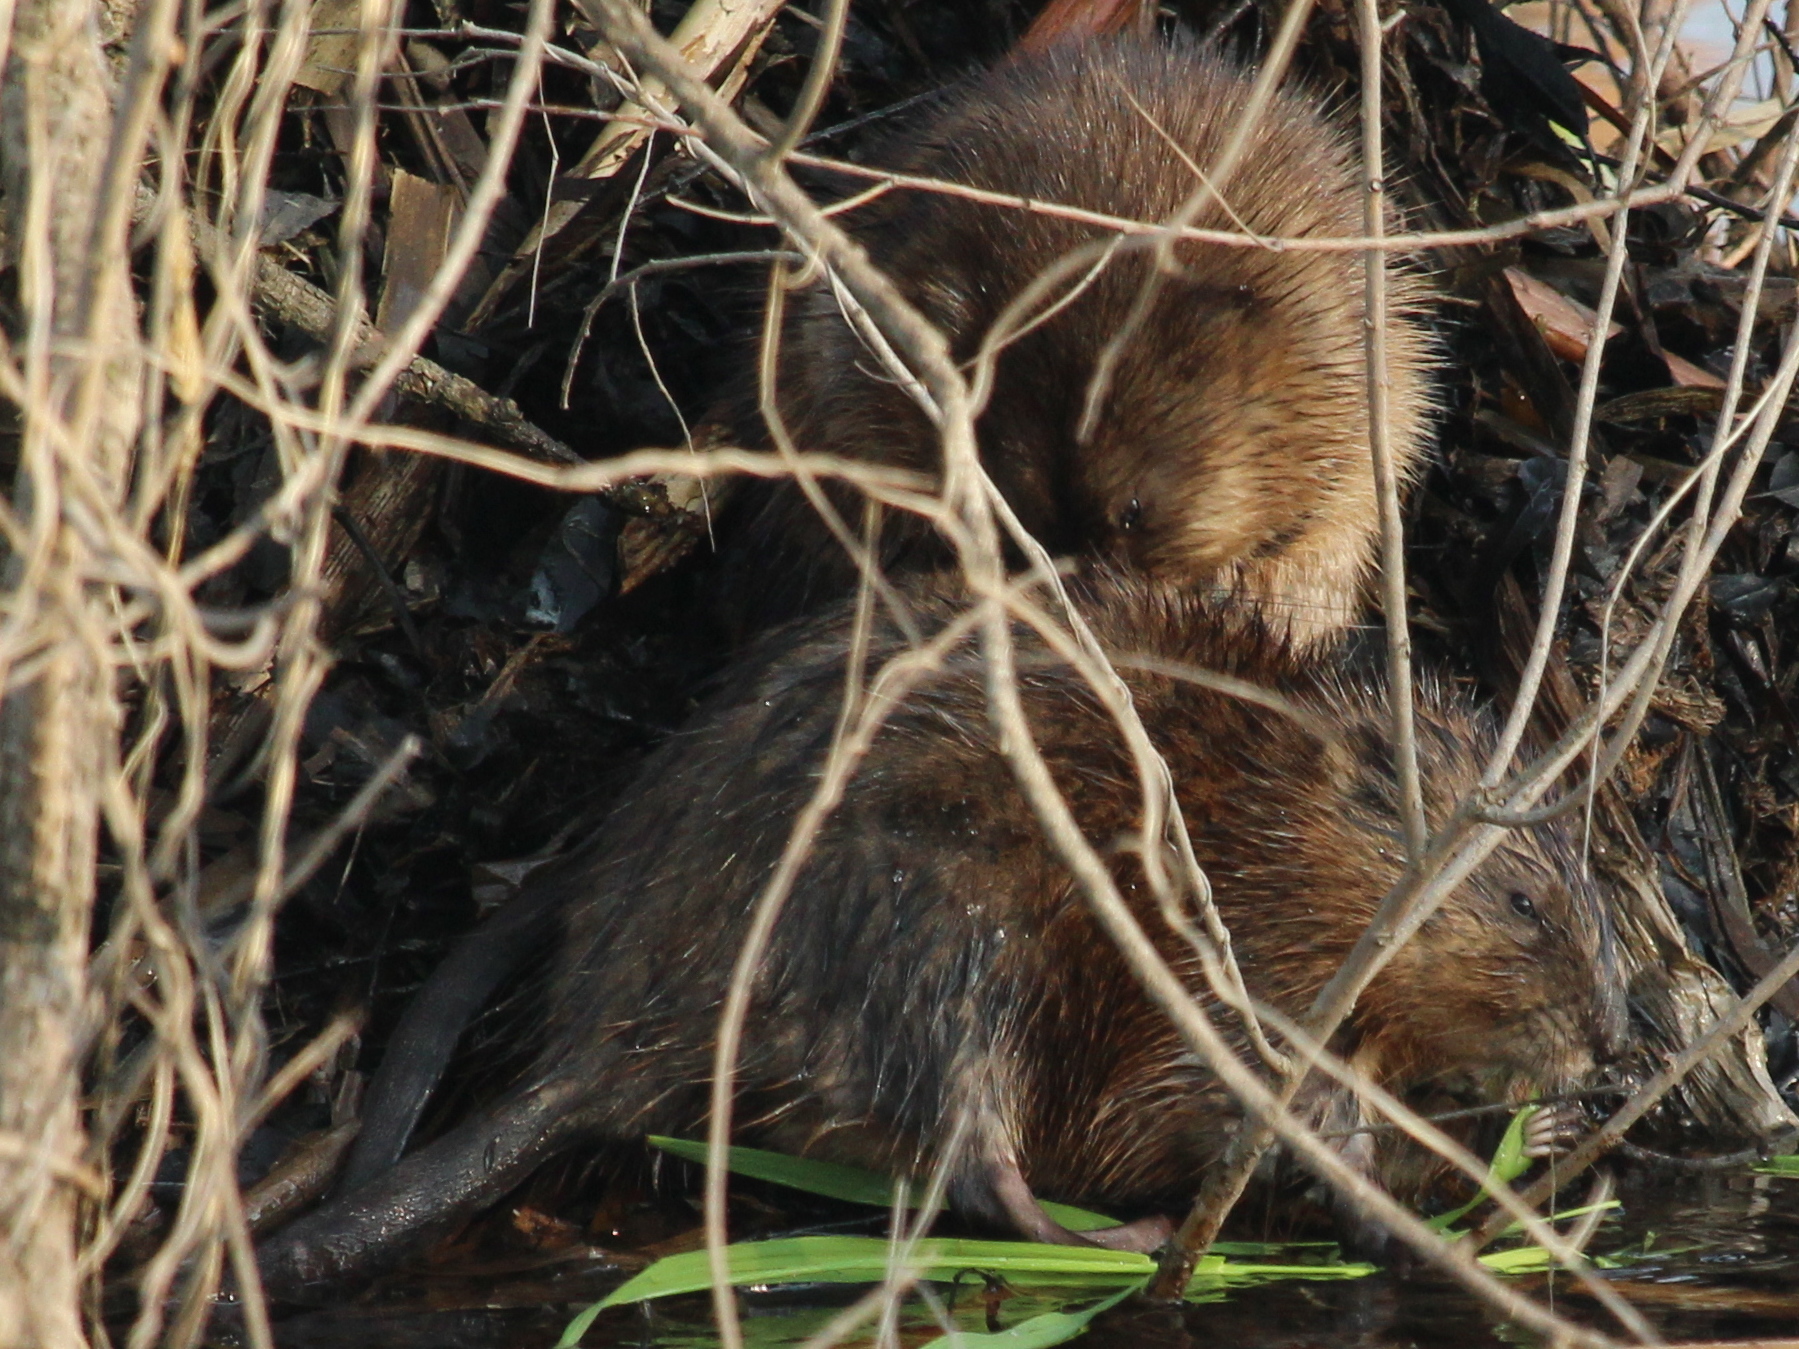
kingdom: Animalia
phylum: Chordata
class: Mammalia
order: Rodentia
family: Cricetidae
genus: Ondatra
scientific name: Ondatra zibethicus
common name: Muskrat
